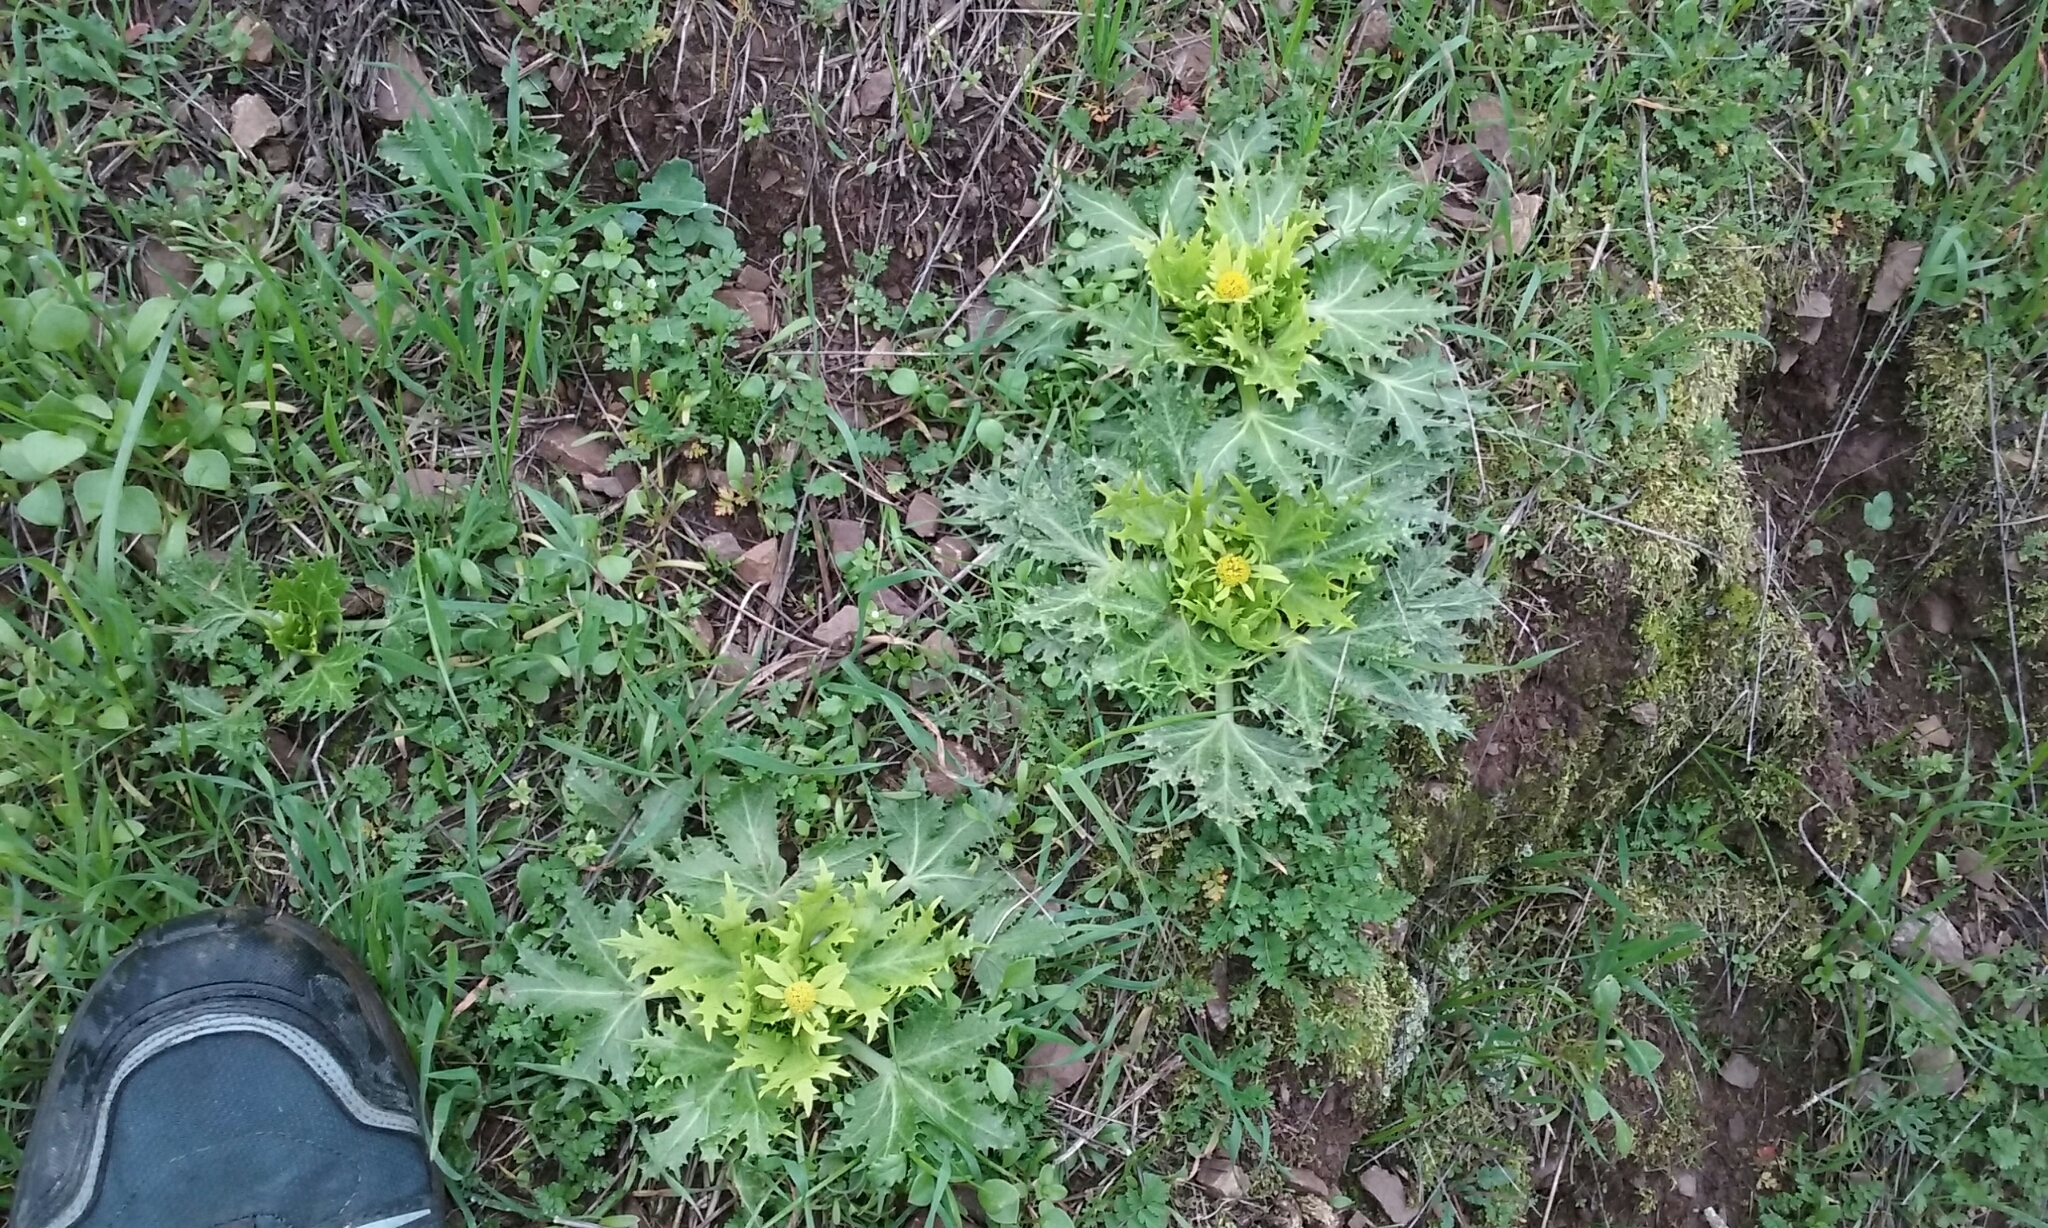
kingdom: Plantae
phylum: Tracheophyta
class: Magnoliopsida
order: Apiales
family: Apiaceae
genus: Sanicula
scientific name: Sanicula arctopoides
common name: Footsteps-of-spring
